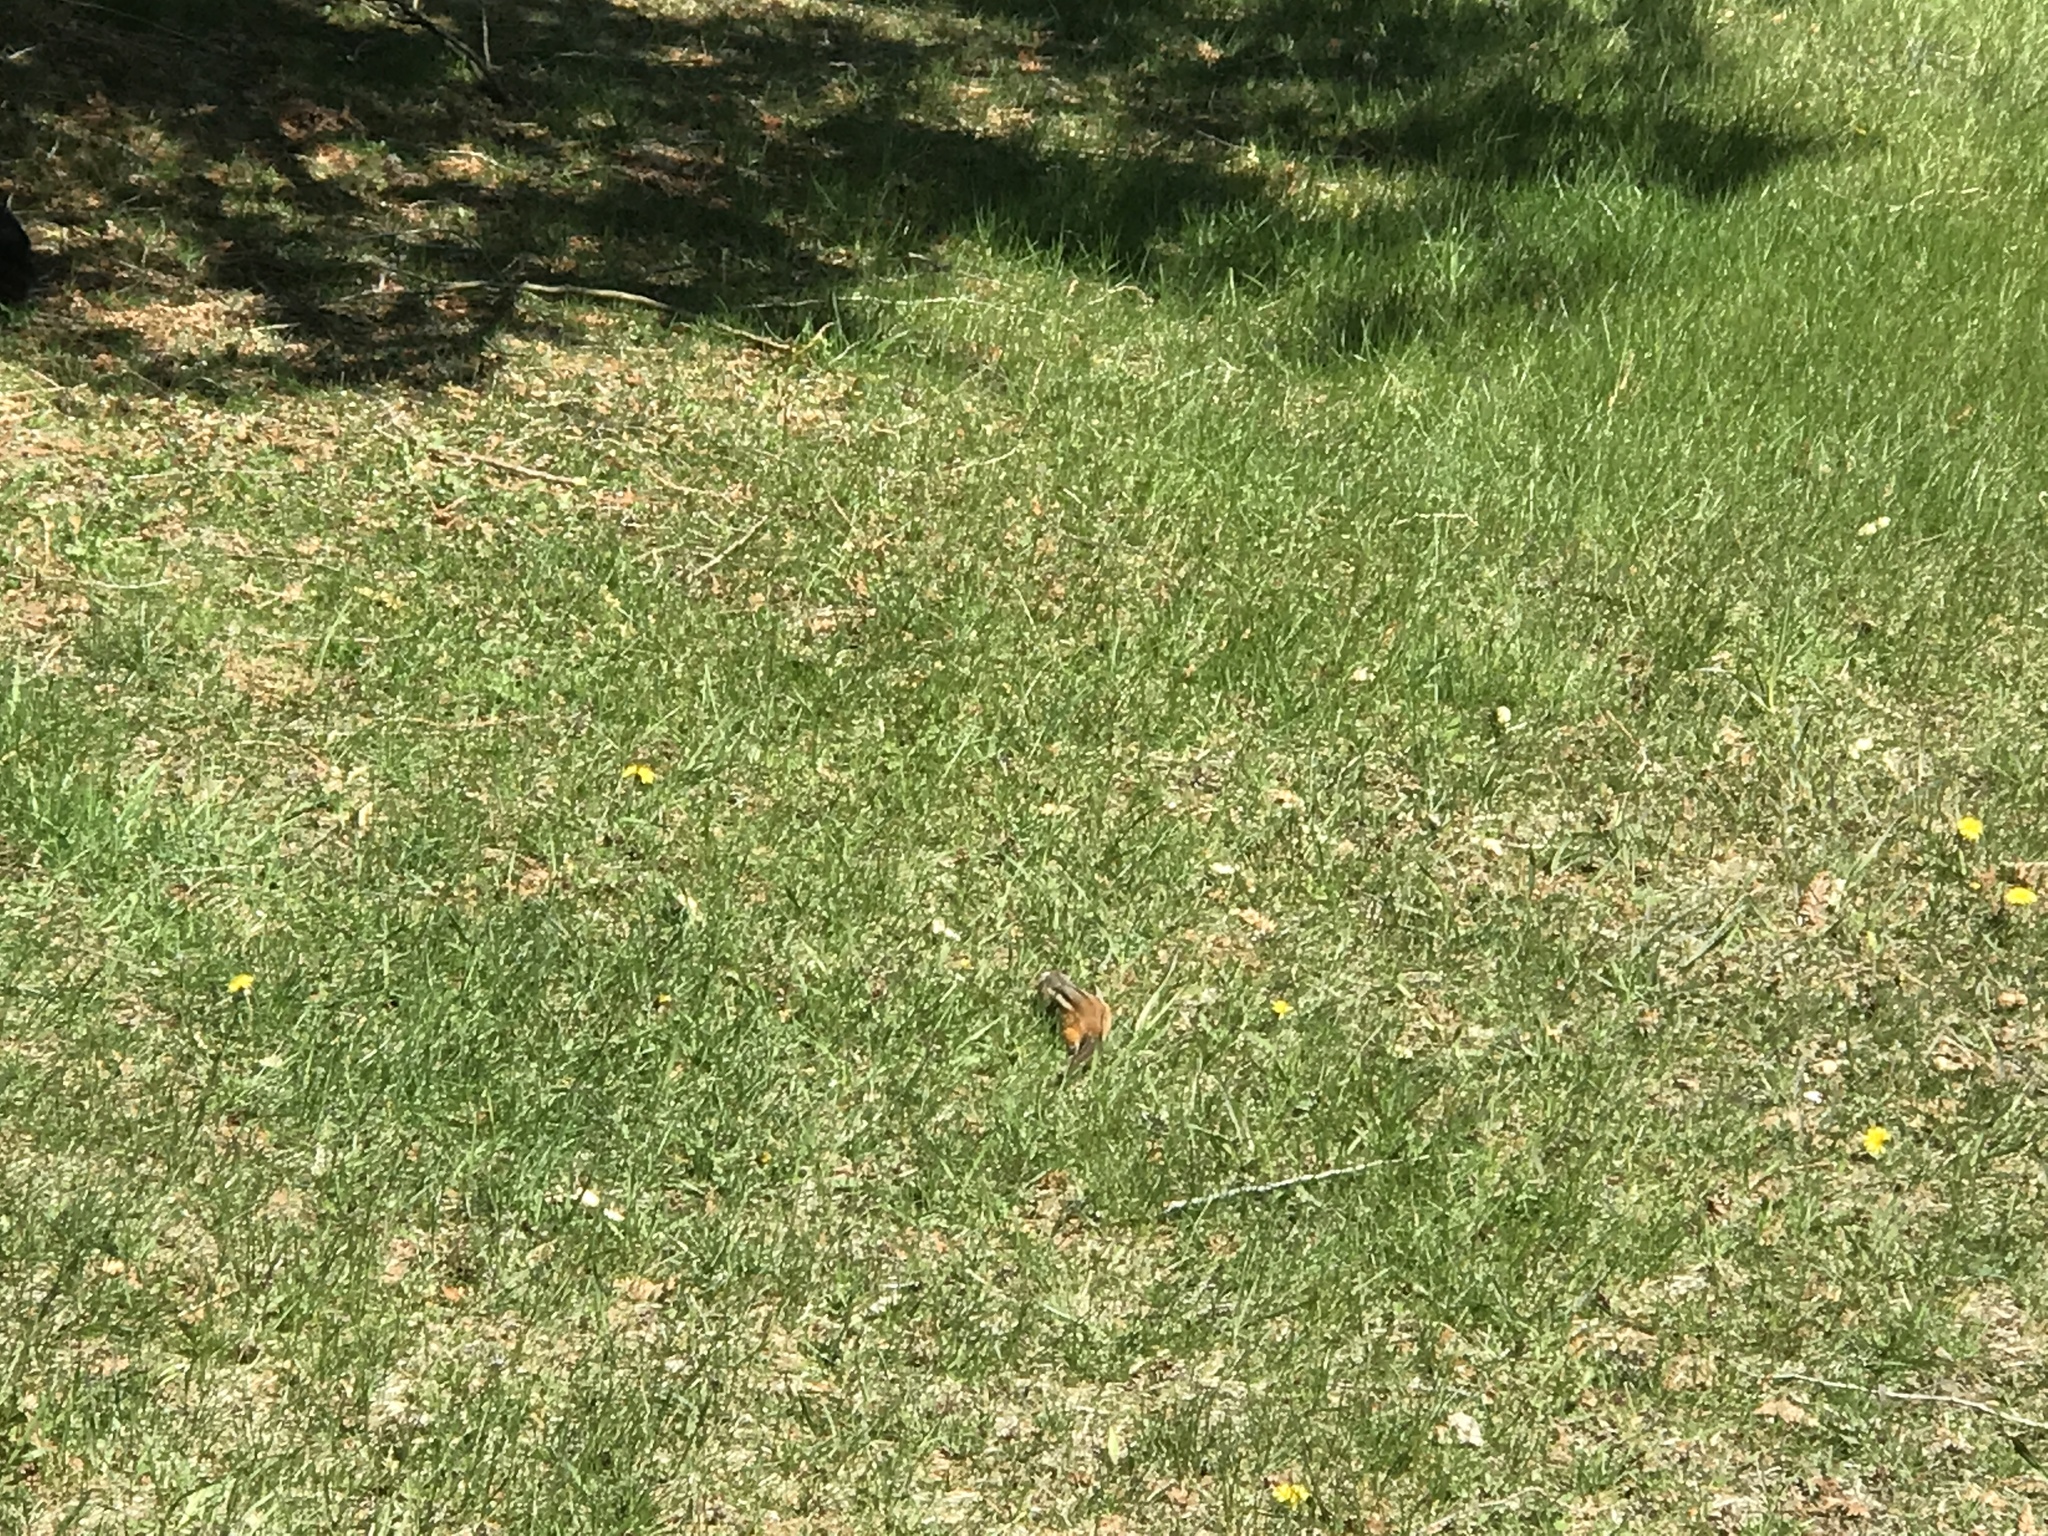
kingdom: Animalia
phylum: Chordata
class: Mammalia
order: Rodentia
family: Sciuridae
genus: Tamias
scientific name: Tamias striatus
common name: Eastern chipmunk
